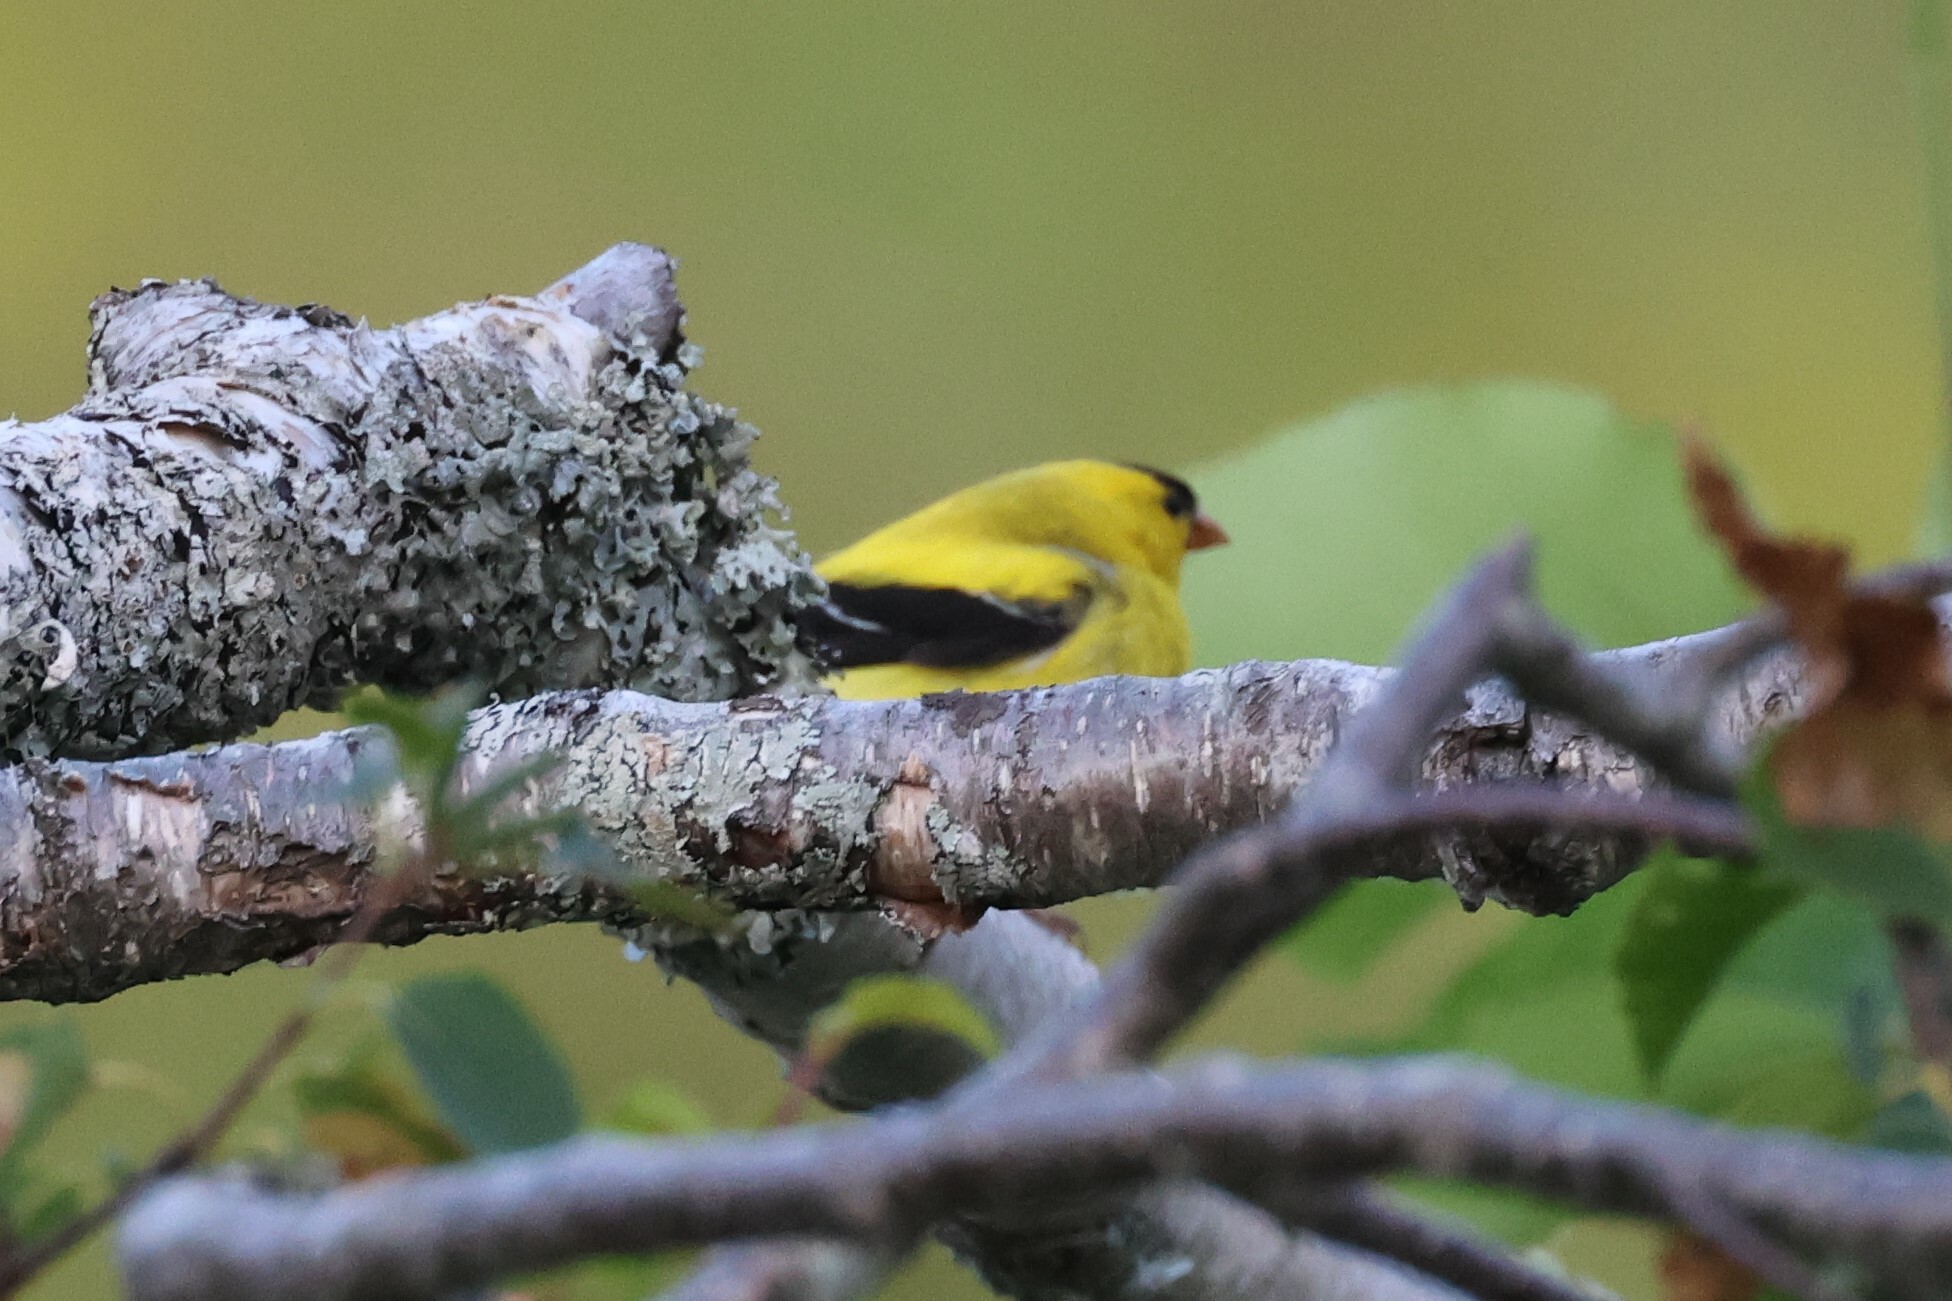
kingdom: Animalia
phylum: Chordata
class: Aves
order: Passeriformes
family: Fringillidae
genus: Spinus
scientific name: Spinus tristis
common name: American goldfinch
